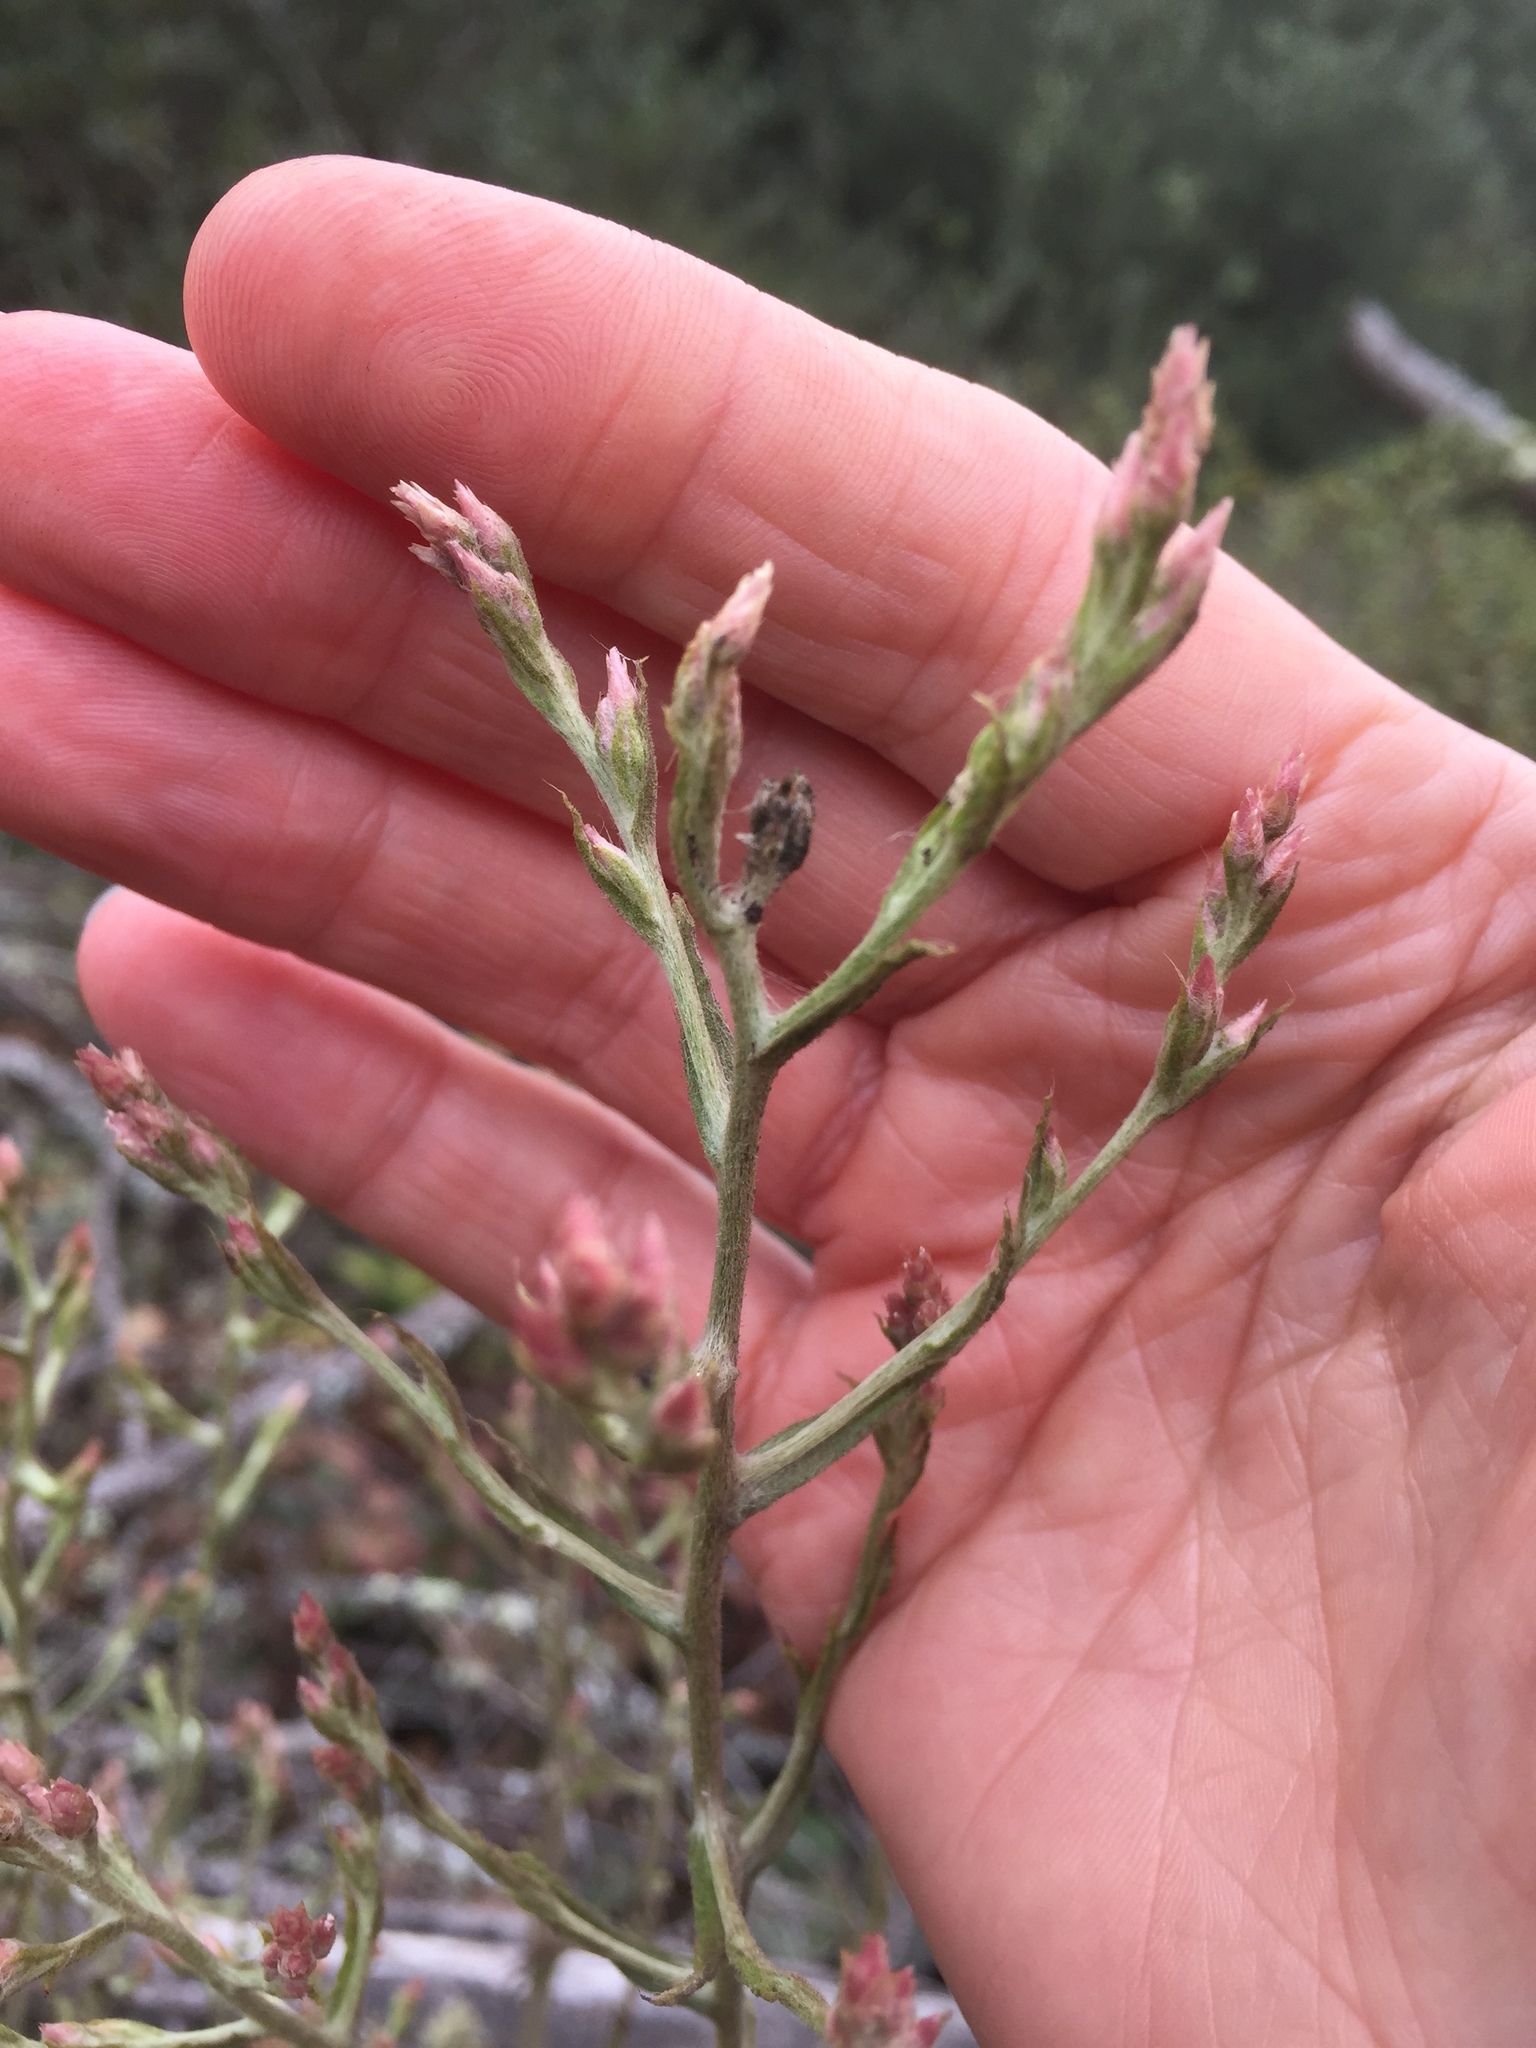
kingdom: Plantae
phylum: Tracheophyta
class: Magnoliopsida
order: Asterales
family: Asteraceae
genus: Pseudognaphalium
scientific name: Pseudognaphalium ramosissimum
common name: Pink rabbit-tobacco
